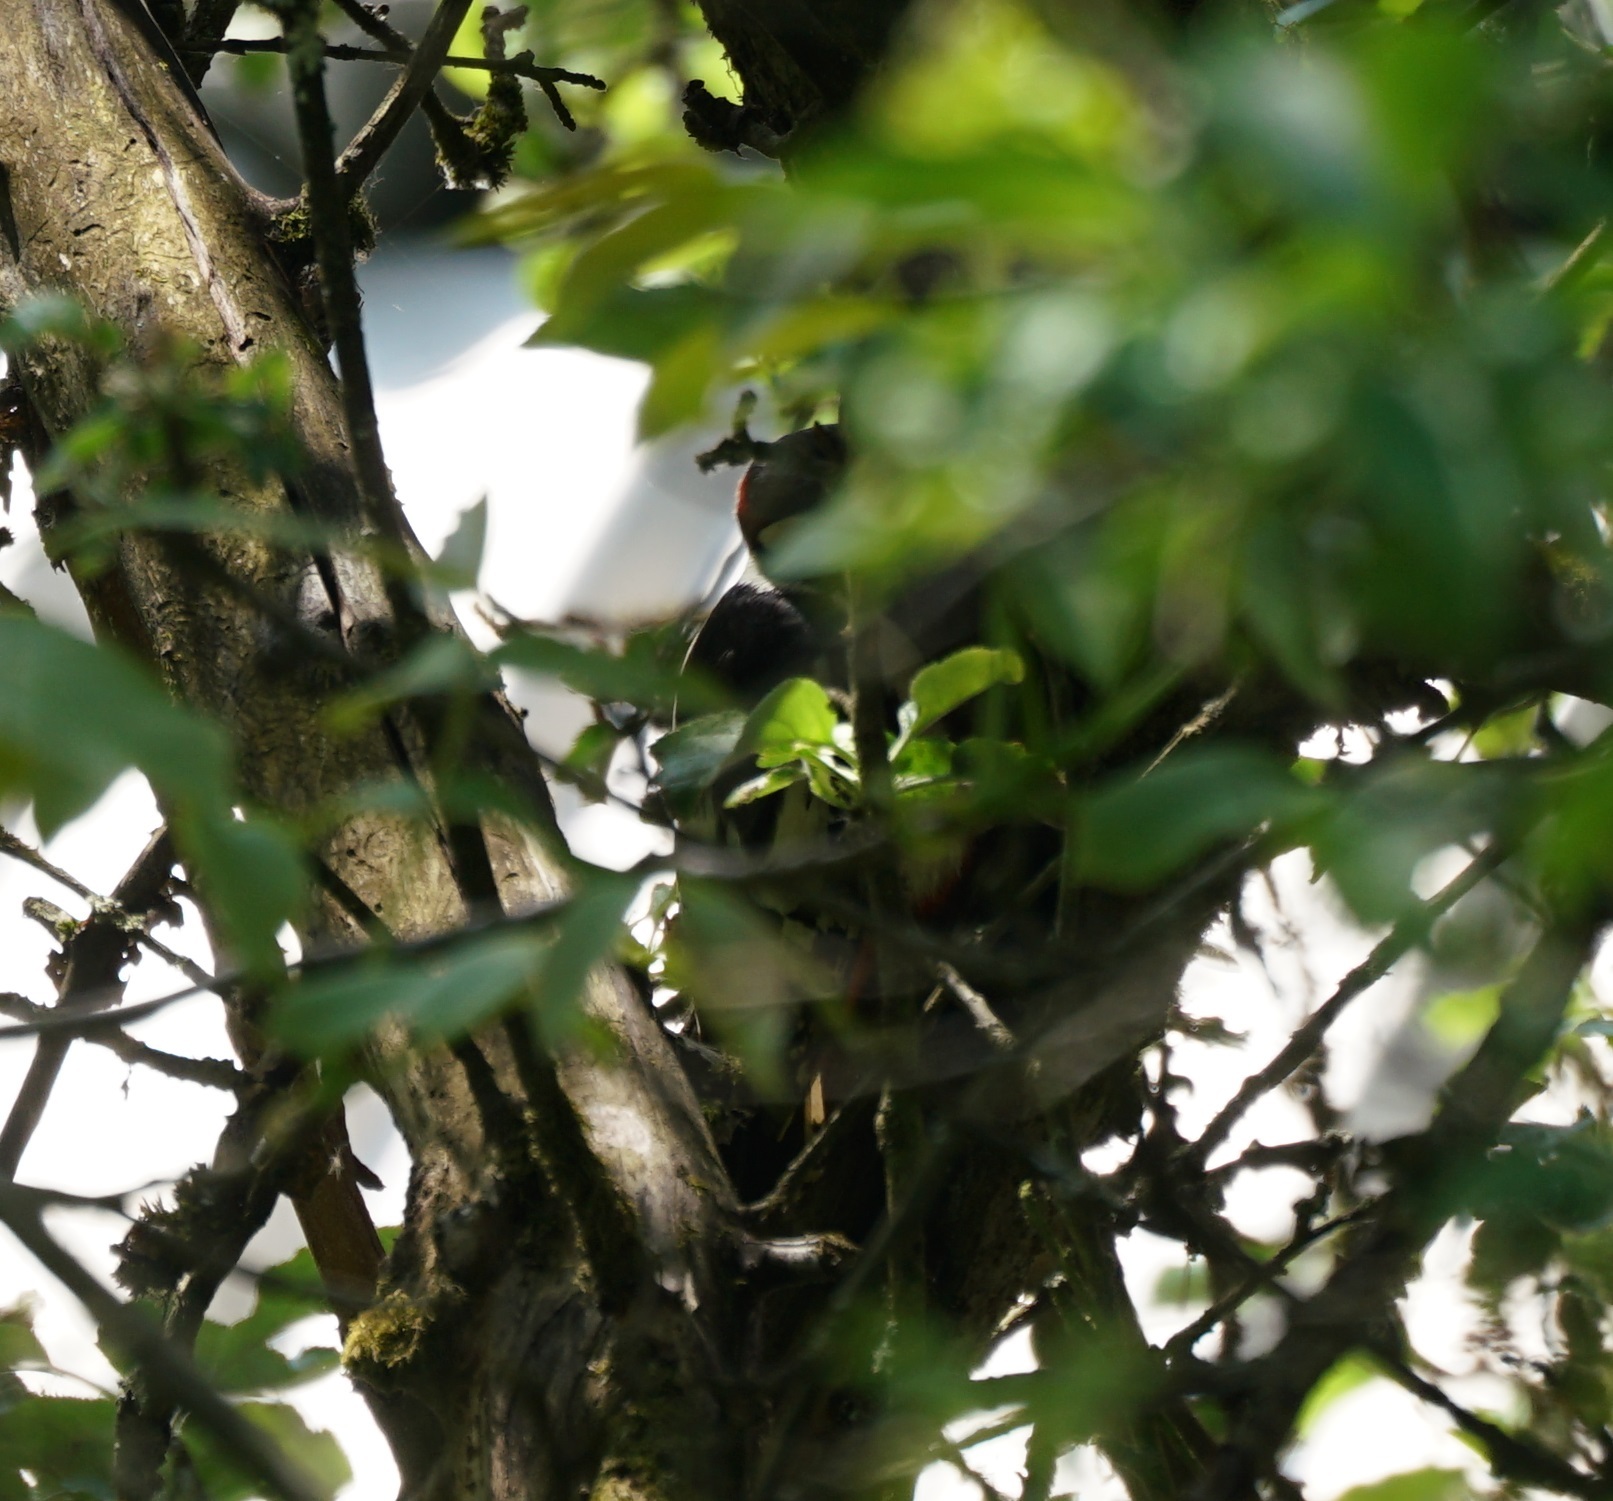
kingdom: Animalia
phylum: Chordata
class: Aves
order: Piciformes
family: Picidae
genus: Dendrocopos
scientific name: Dendrocopos major
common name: Great spotted woodpecker
